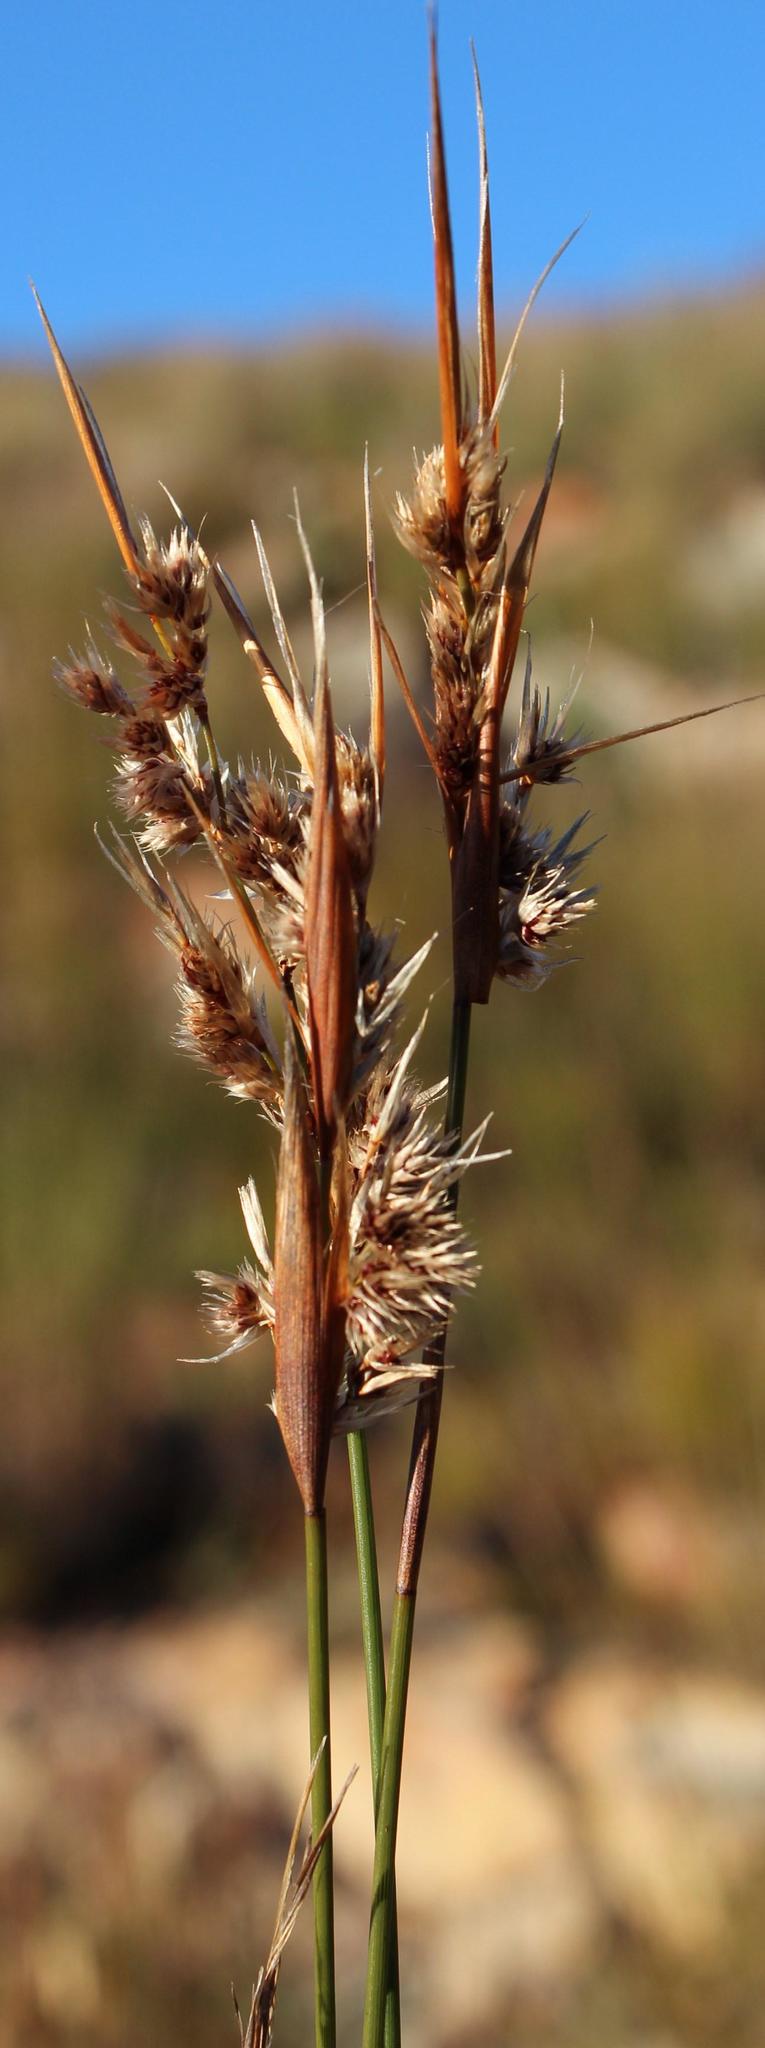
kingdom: Plantae
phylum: Tracheophyta
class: Liliopsida
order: Poales
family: Restionaceae
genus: Hypodiscus
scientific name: Hypodiscus argenteus
